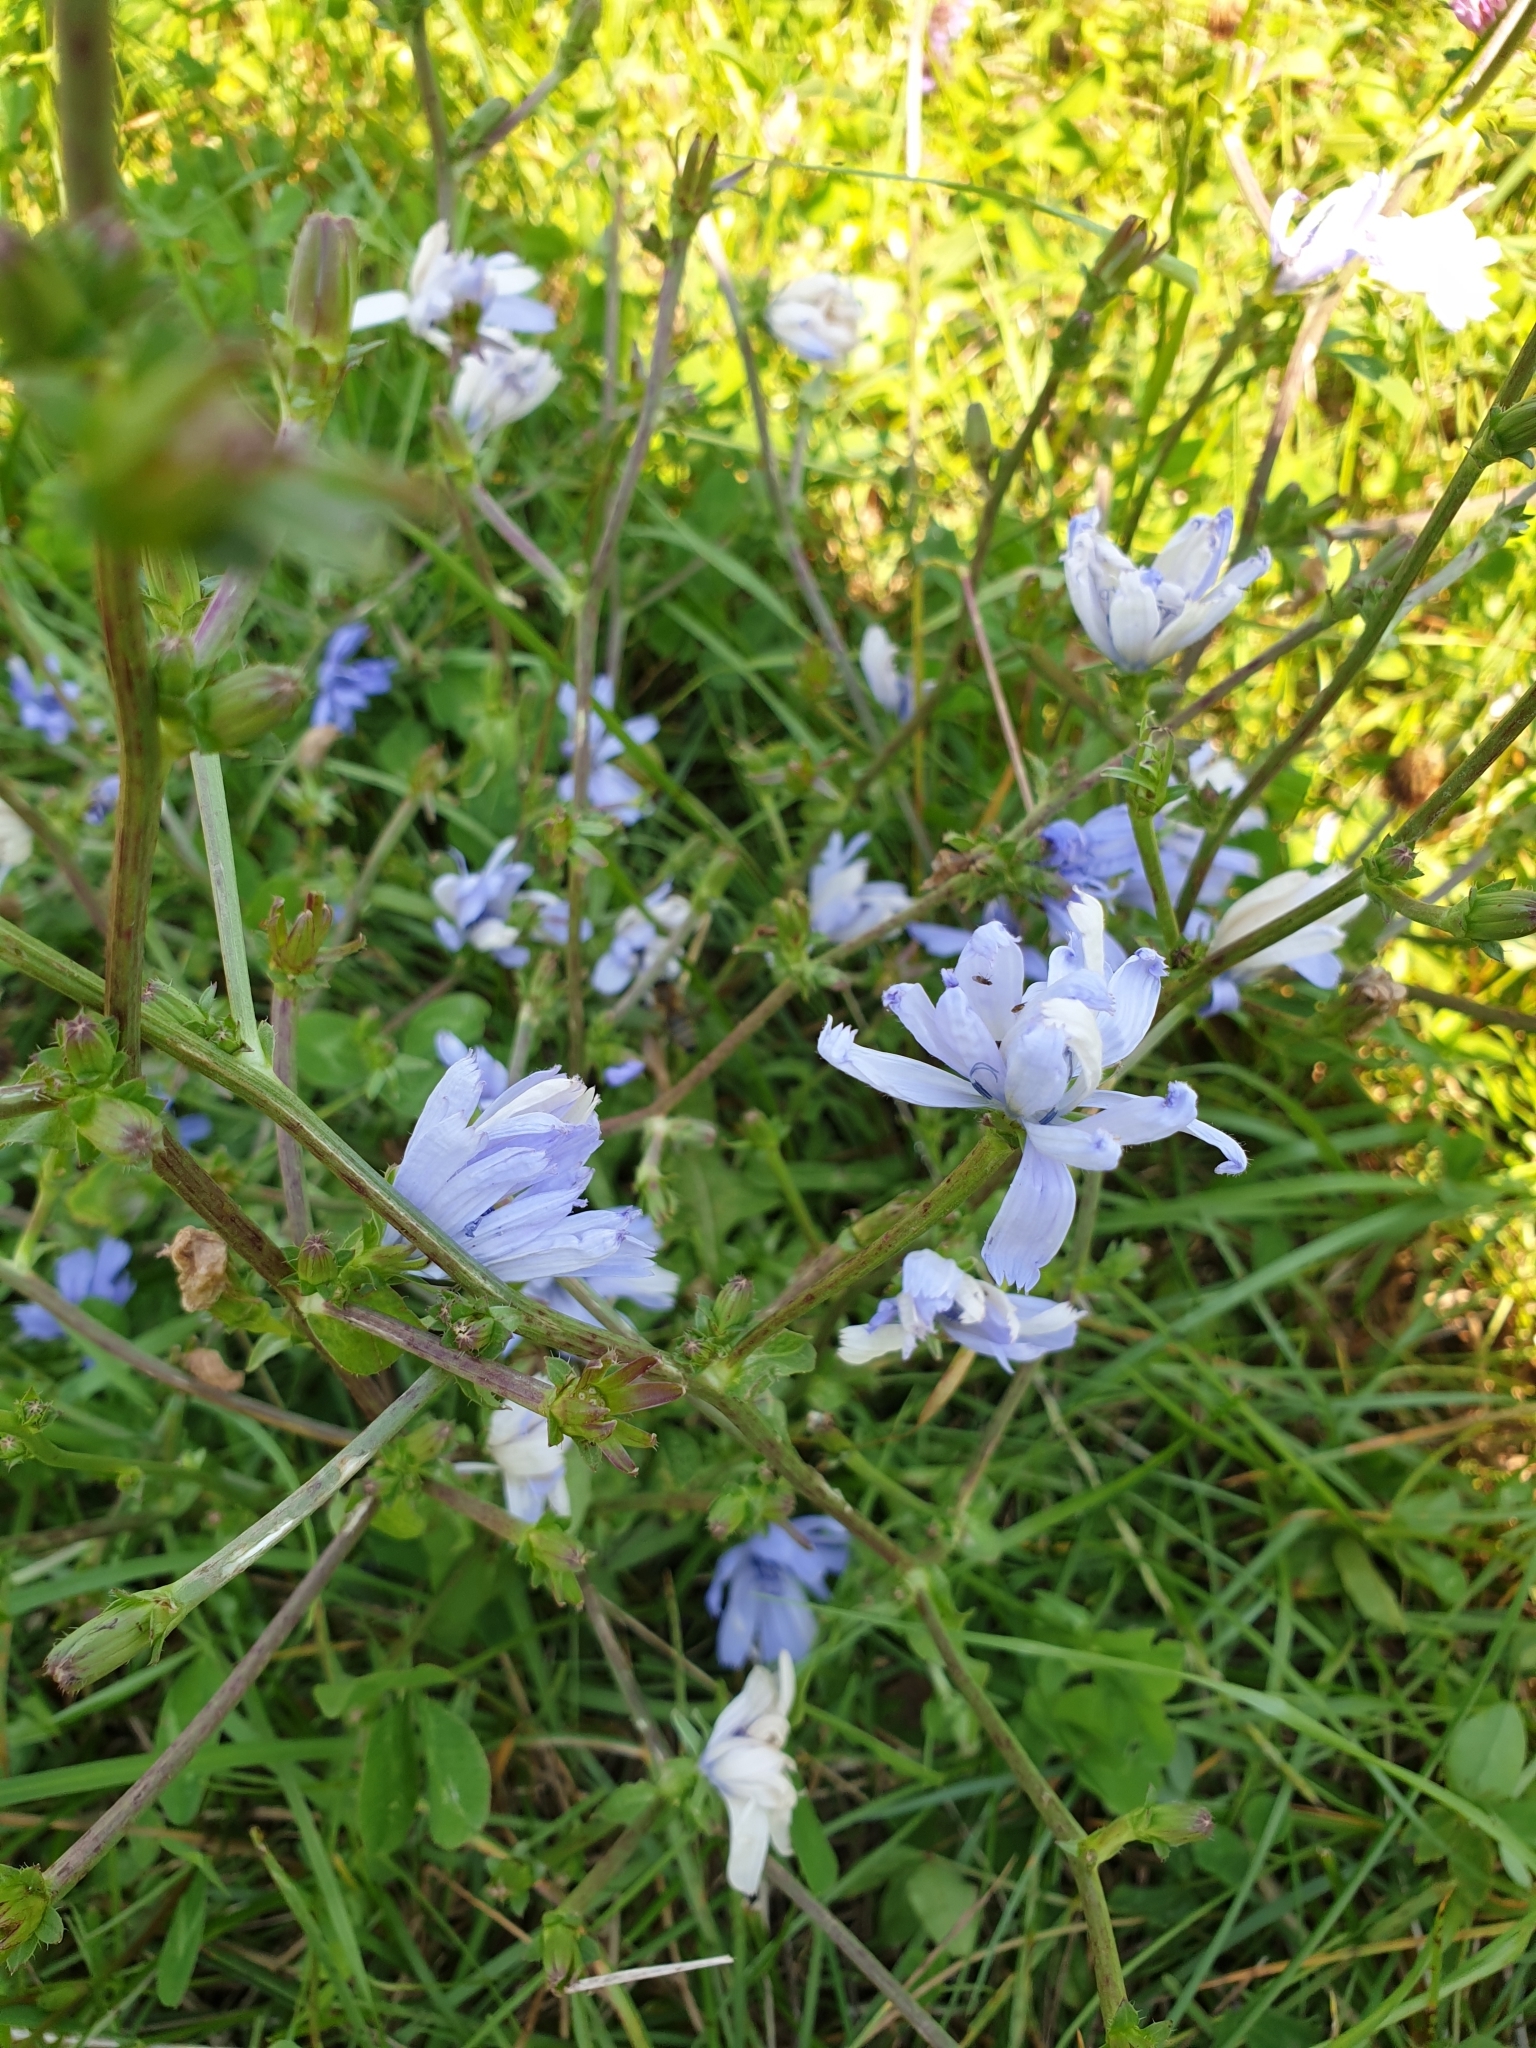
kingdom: Plantae
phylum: Tracheophyta
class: Magnoliopsida
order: Asterales
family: Asteraceae
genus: Cichorium
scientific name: Cichorium intybus
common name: Chicory
